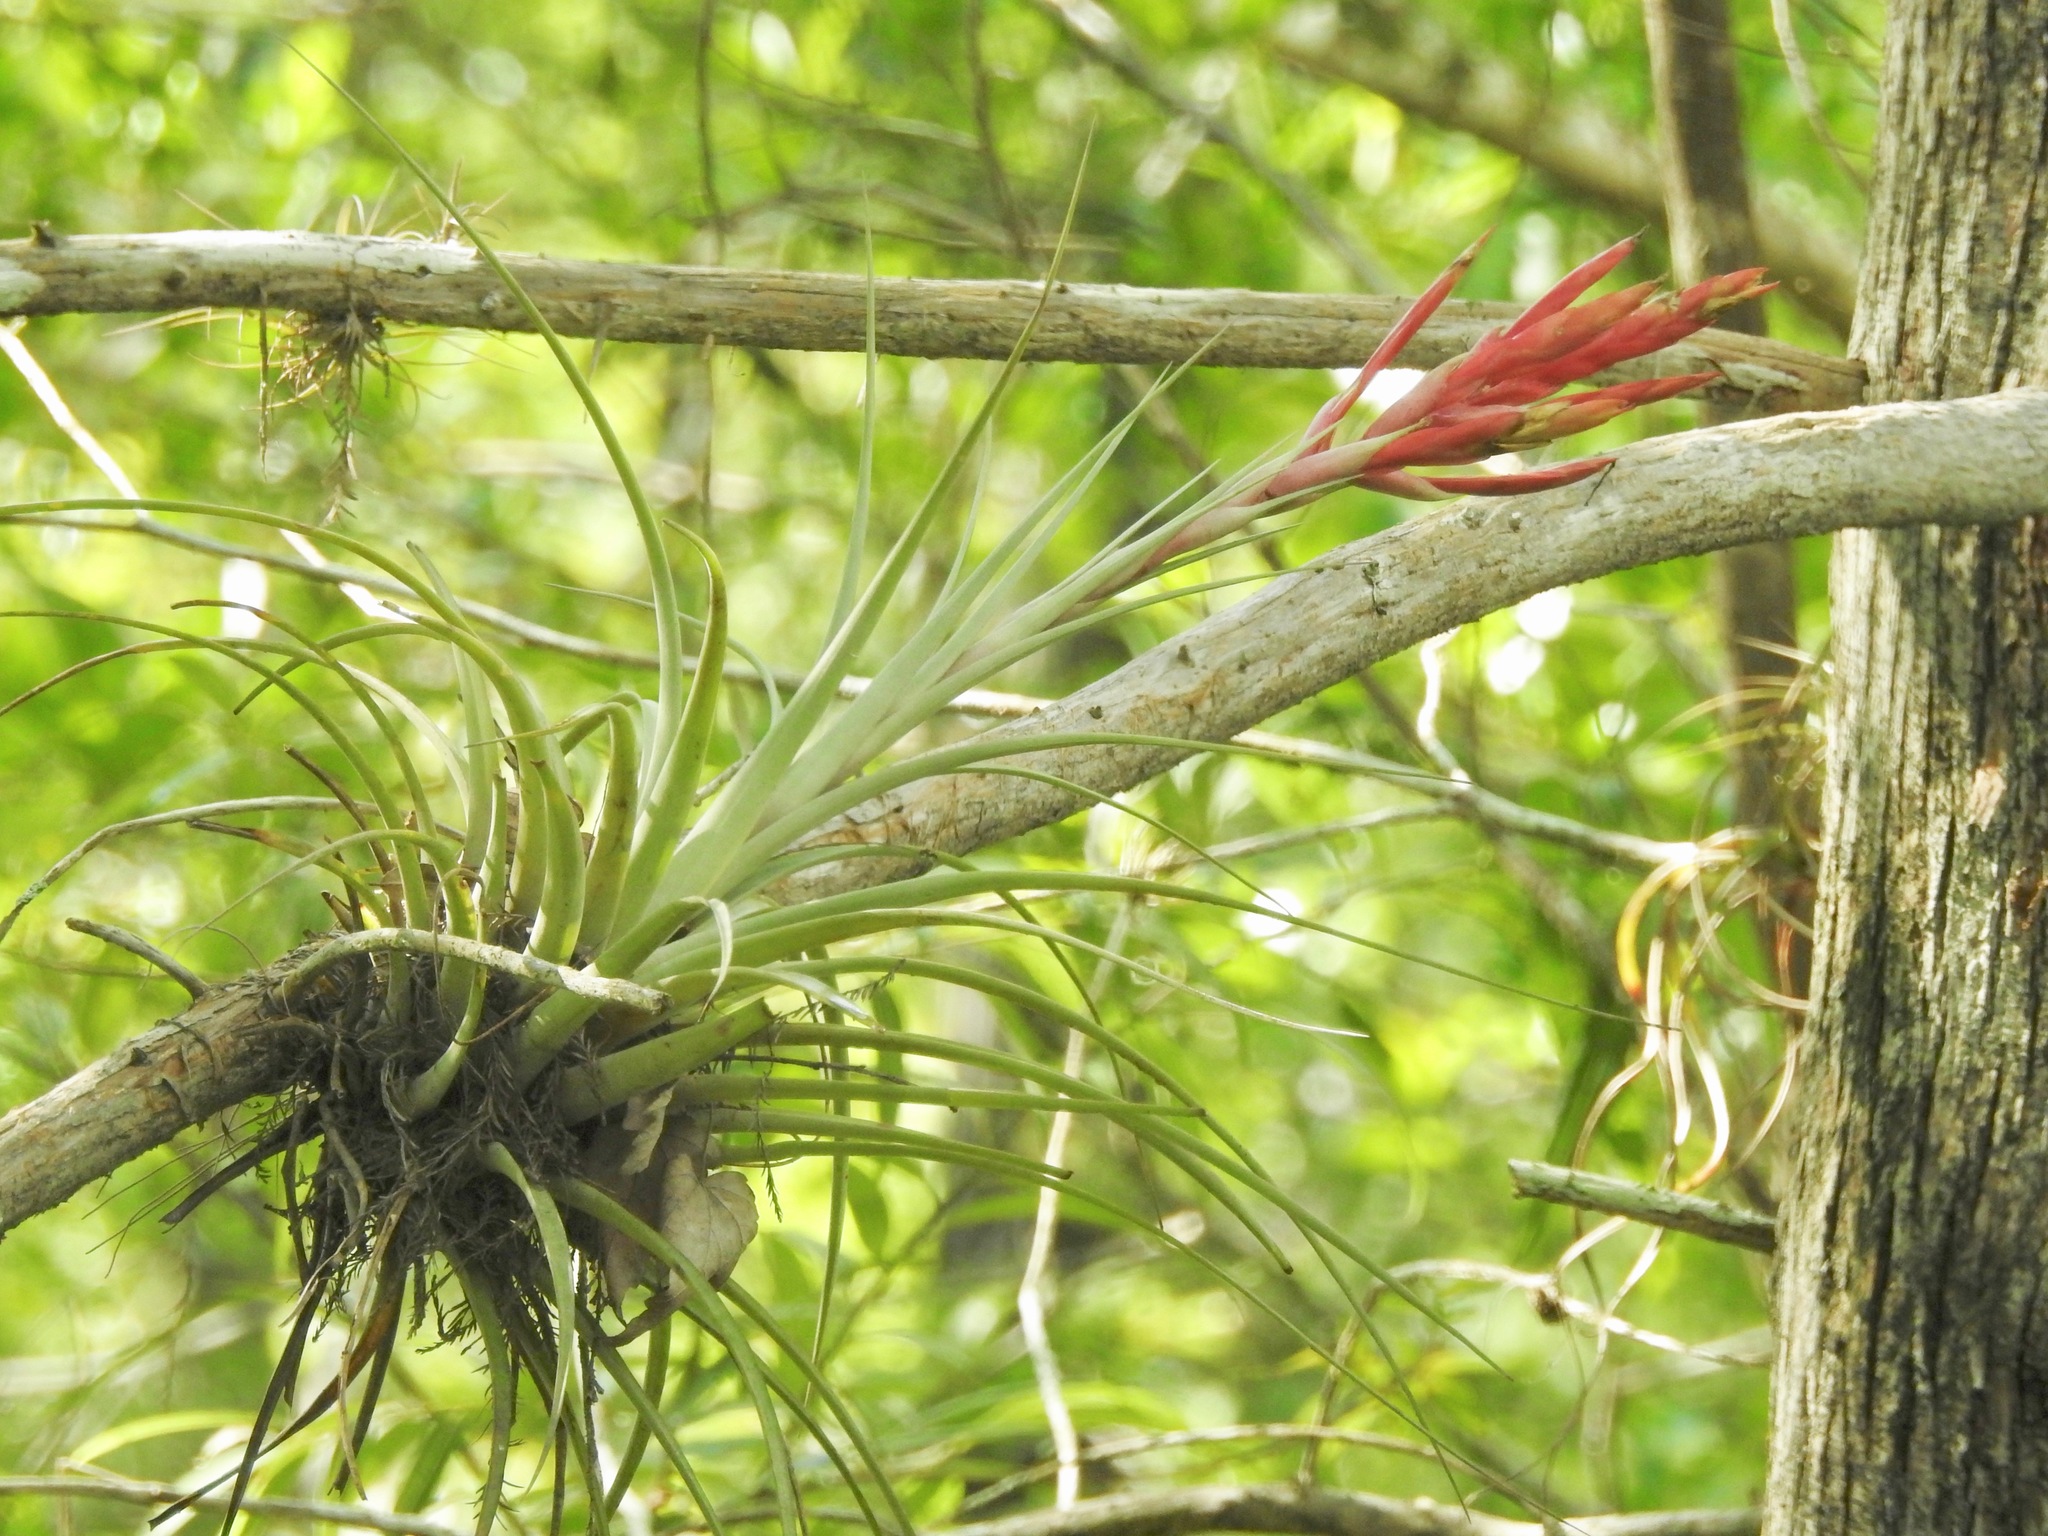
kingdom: Plantae
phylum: Tracheophyta
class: Liliopsida
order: Poales
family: Bromeliaceae
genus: Tillandsia
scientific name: Tillandsia fasciculata
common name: Giant airplant
